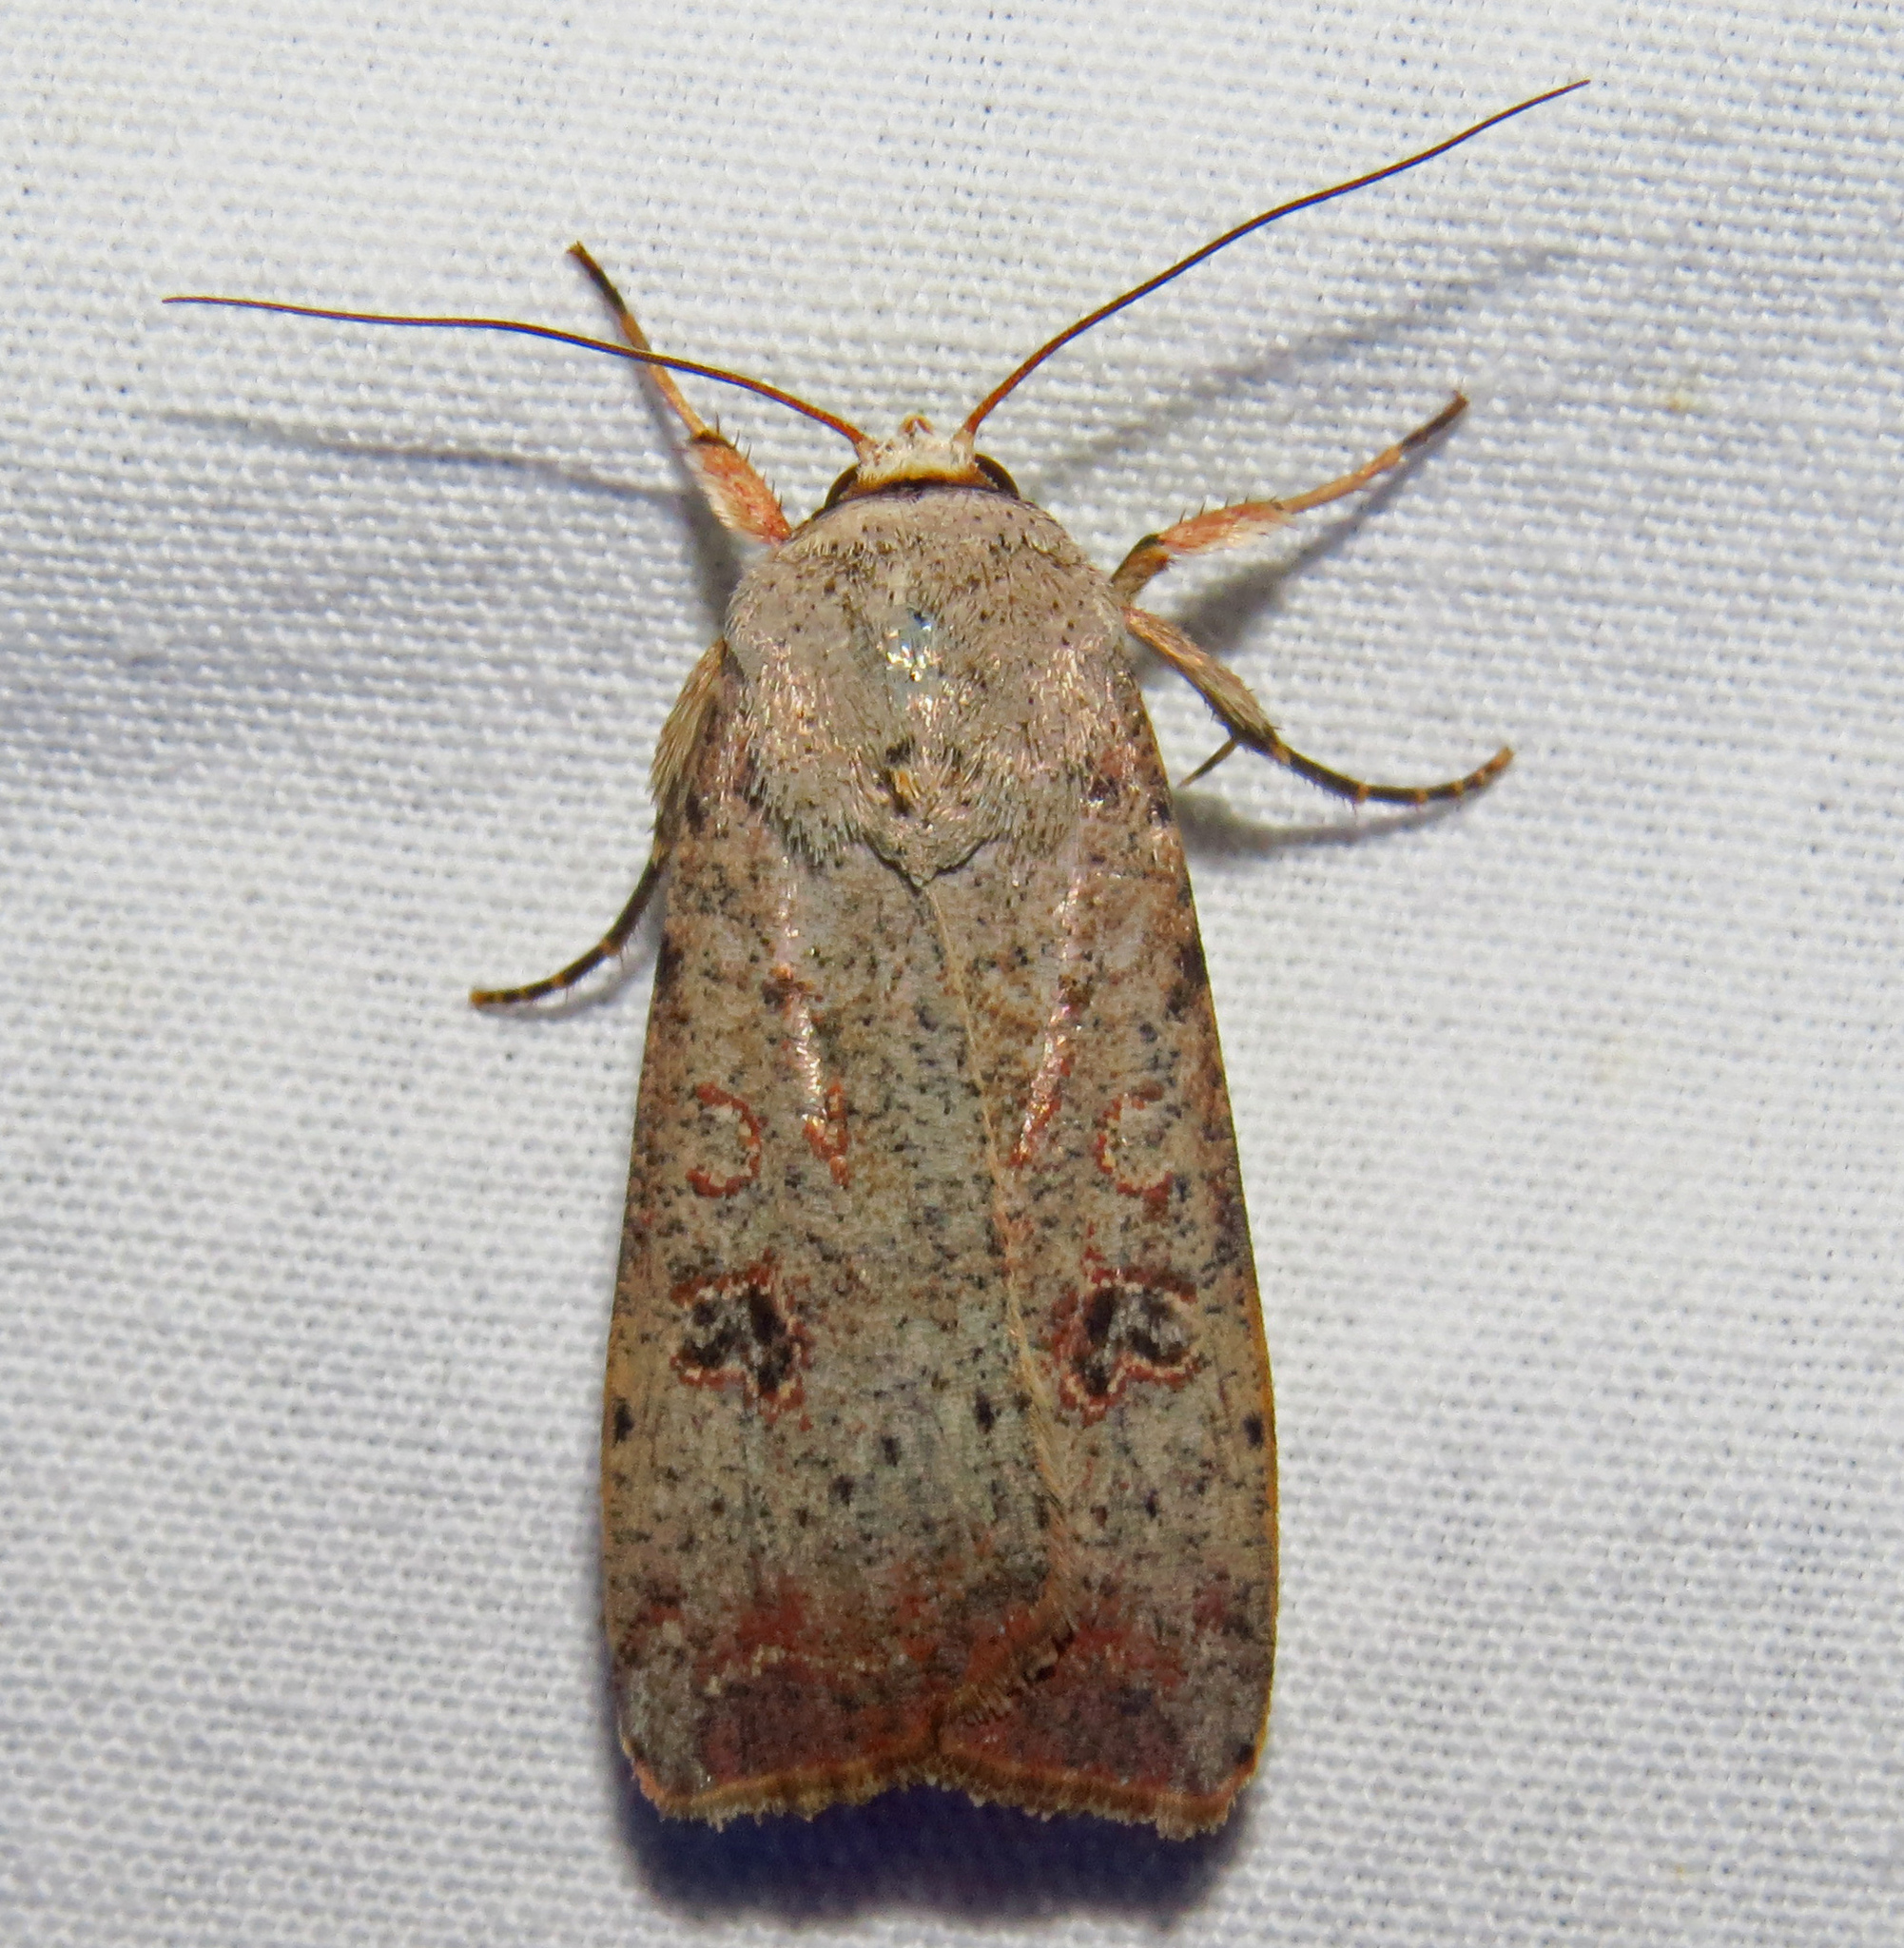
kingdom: Animalia
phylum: Arthropoda
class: Insecta
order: Lepidoptera
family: Noctuidae
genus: Anicla
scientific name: Anicla infecta
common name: Green cutworm
